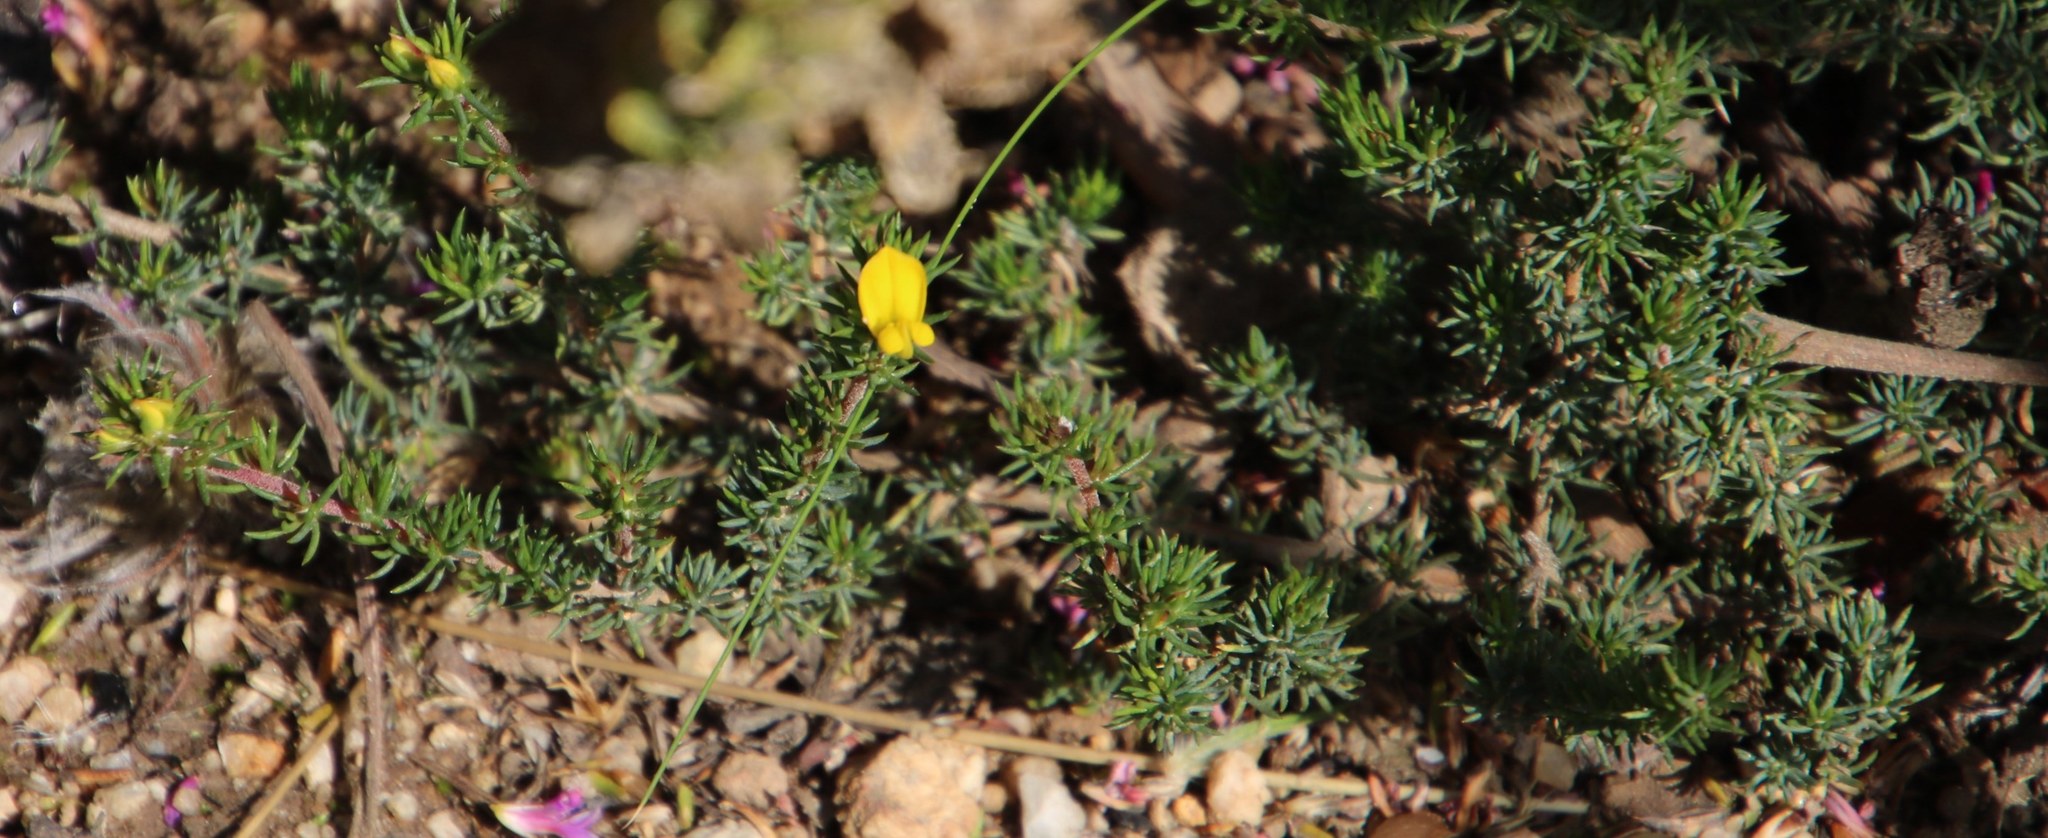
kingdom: Plantae
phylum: Tracheophyta
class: Magnoliopsida
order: Fabales
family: Fabaceae
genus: Aspalathus
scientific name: Aspalathus juniperina
